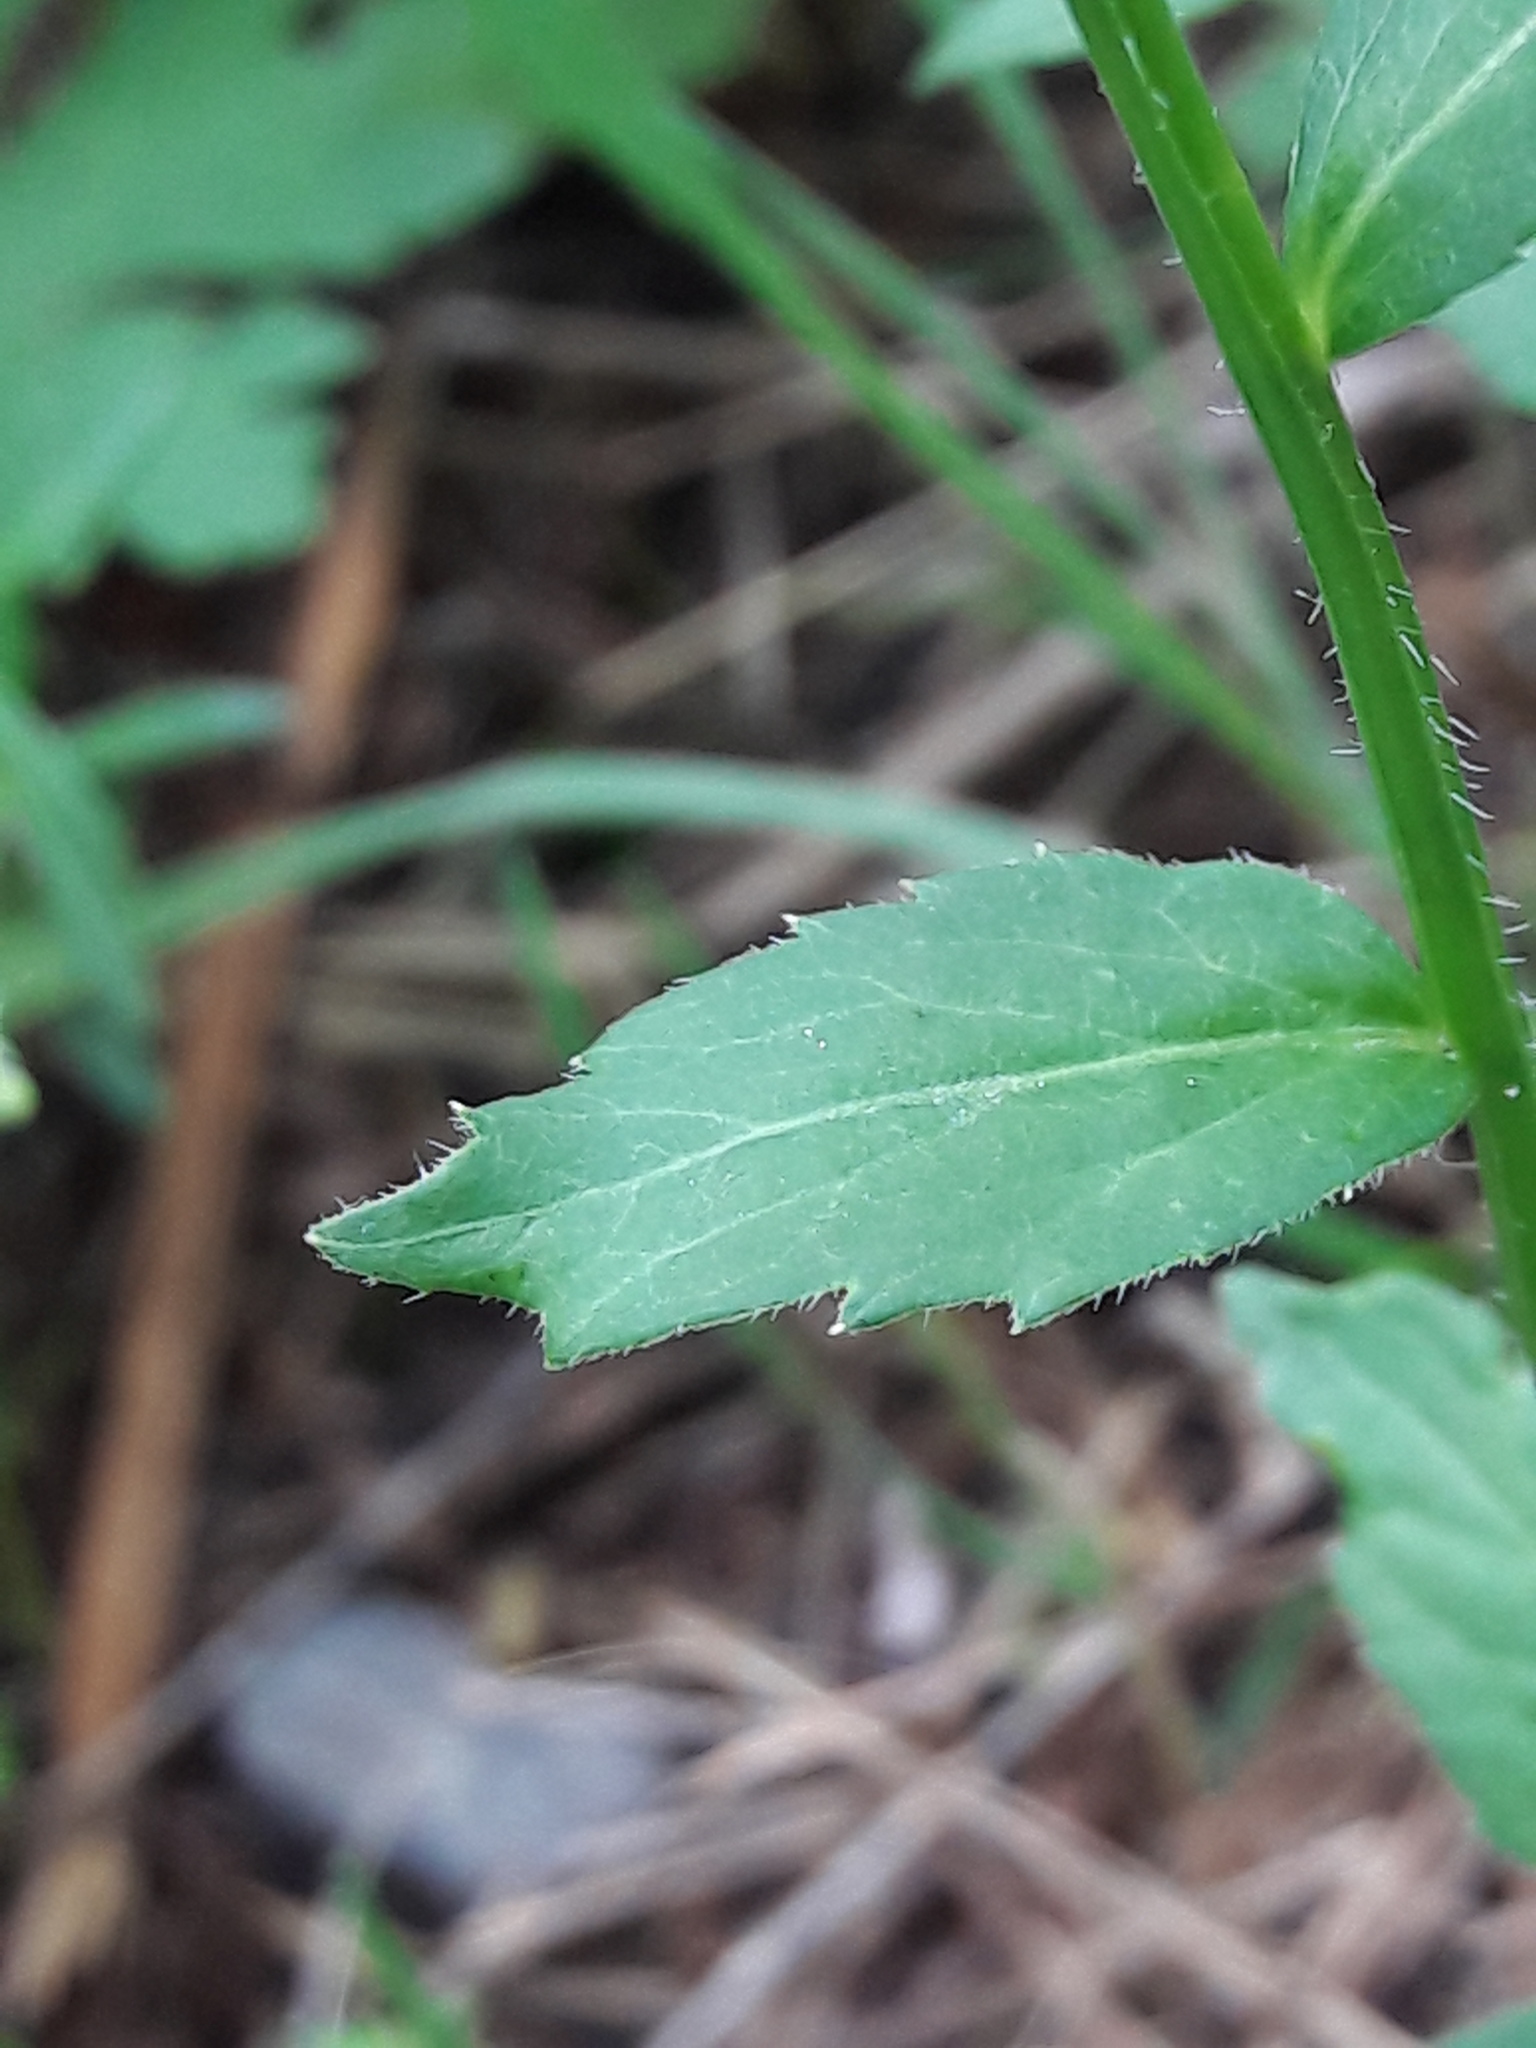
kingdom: Plantae
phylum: Tracheophyta
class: Magnoliopsida
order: Asterales
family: Campanulaceae
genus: Campanula
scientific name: Campanula rhomboidalis
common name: Broad-leaved harebell
